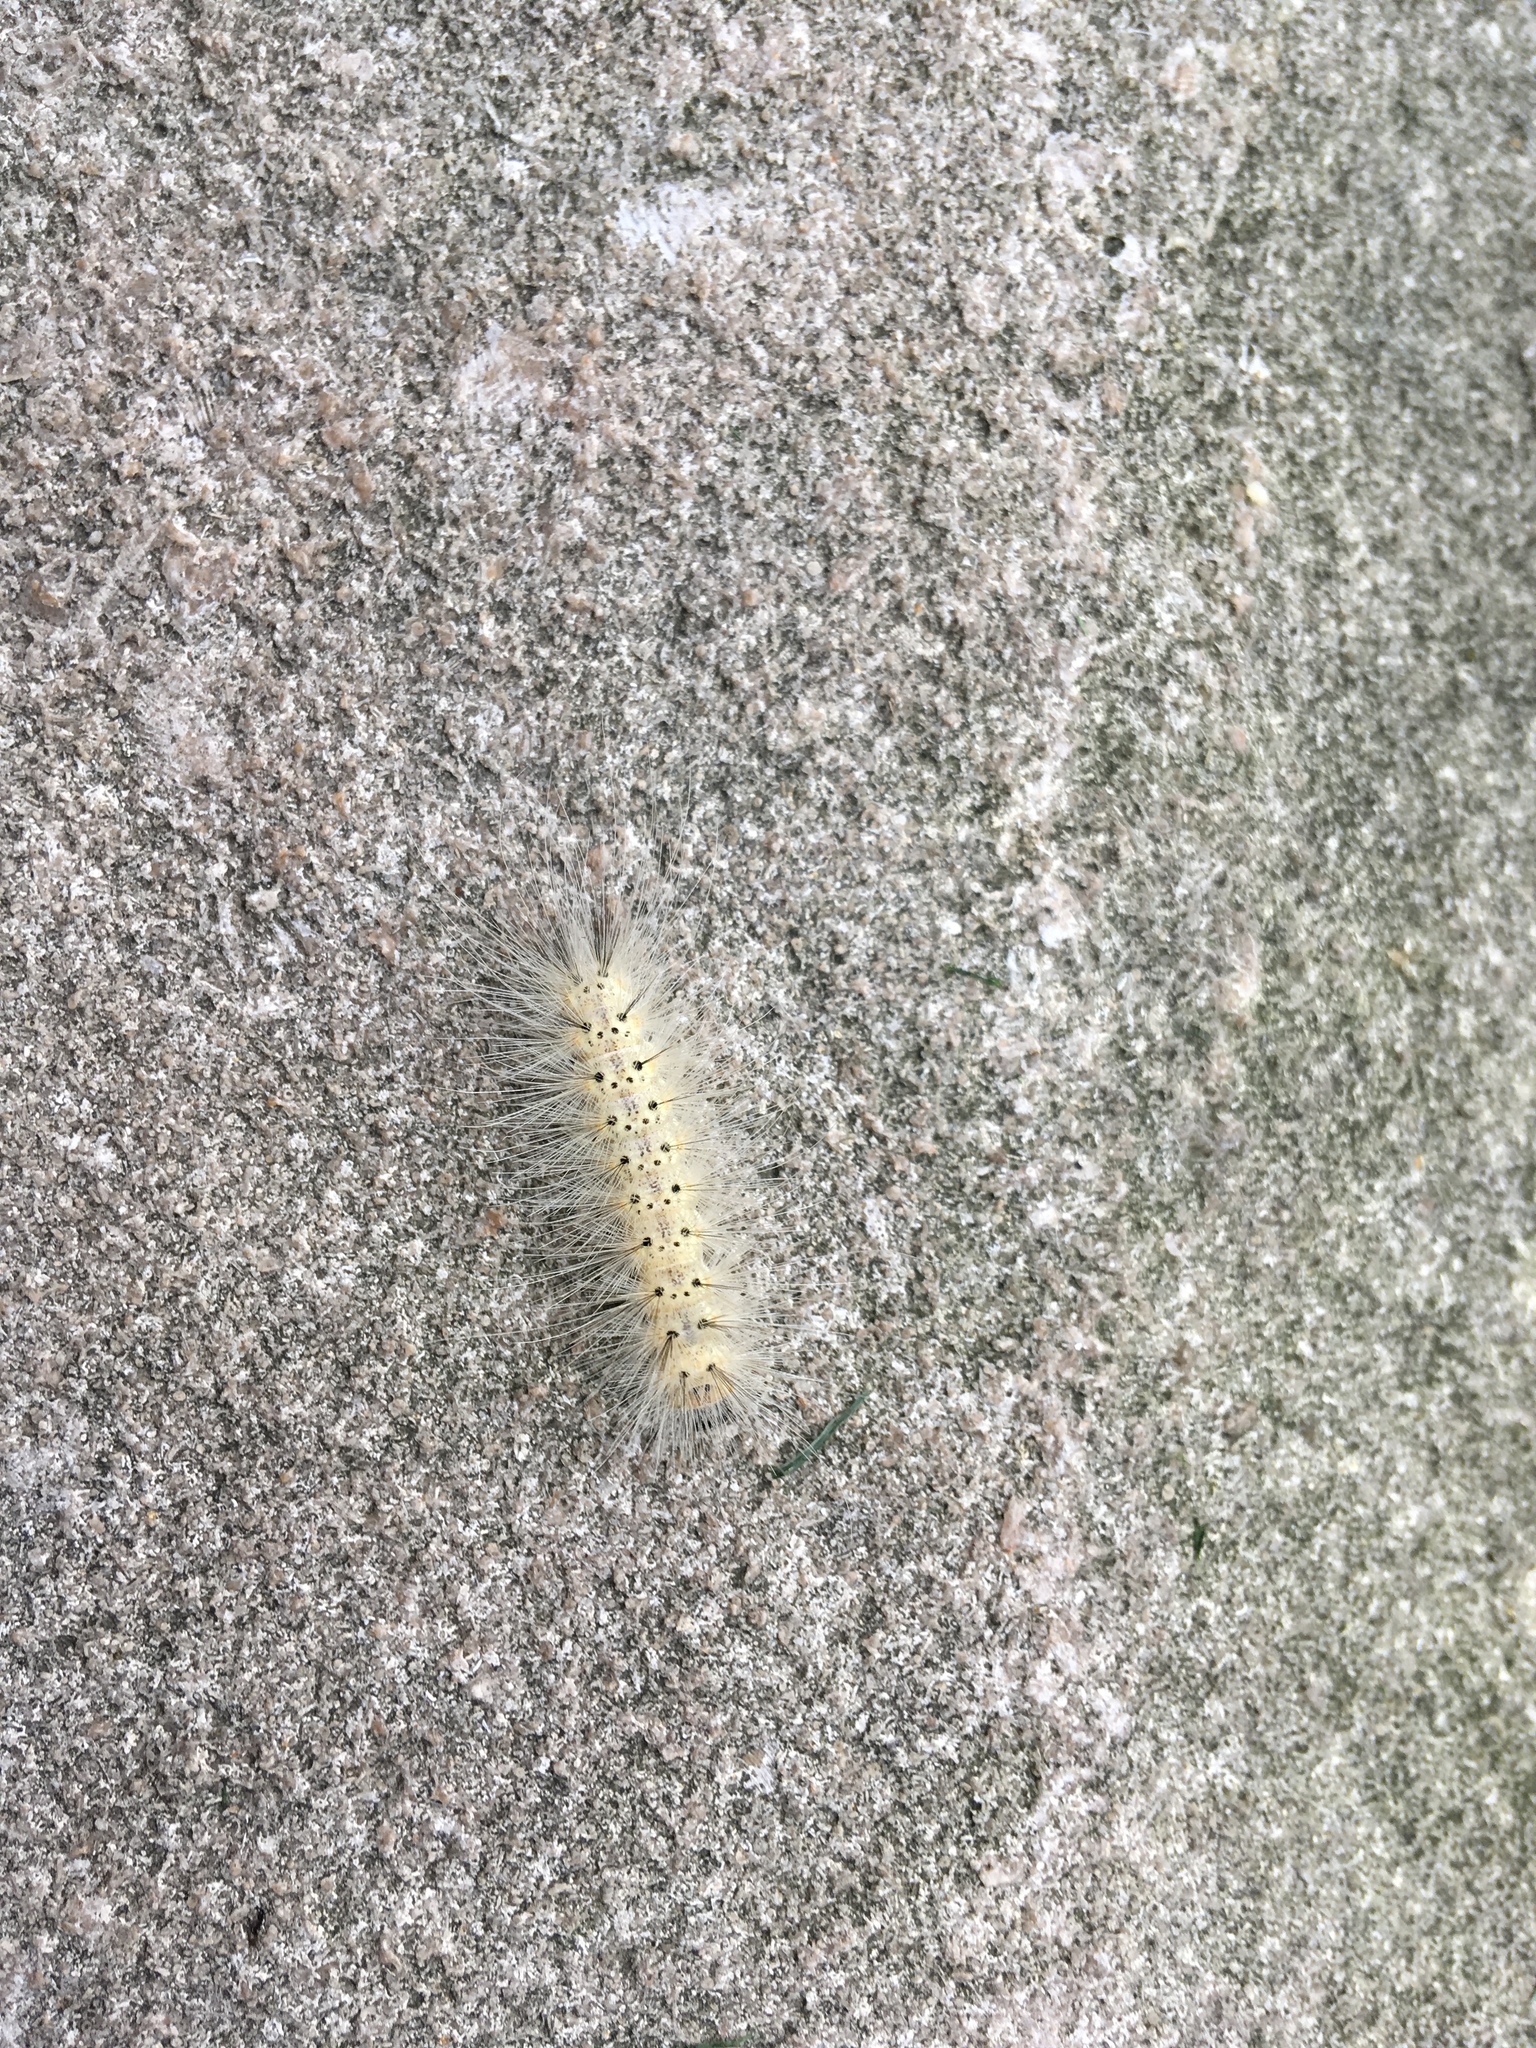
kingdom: Animalia
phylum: Arthropoda
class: Insecta
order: Lepidoptera
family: Erebidae
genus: Hyphantria
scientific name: Hyphantria cunea
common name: American white moth
